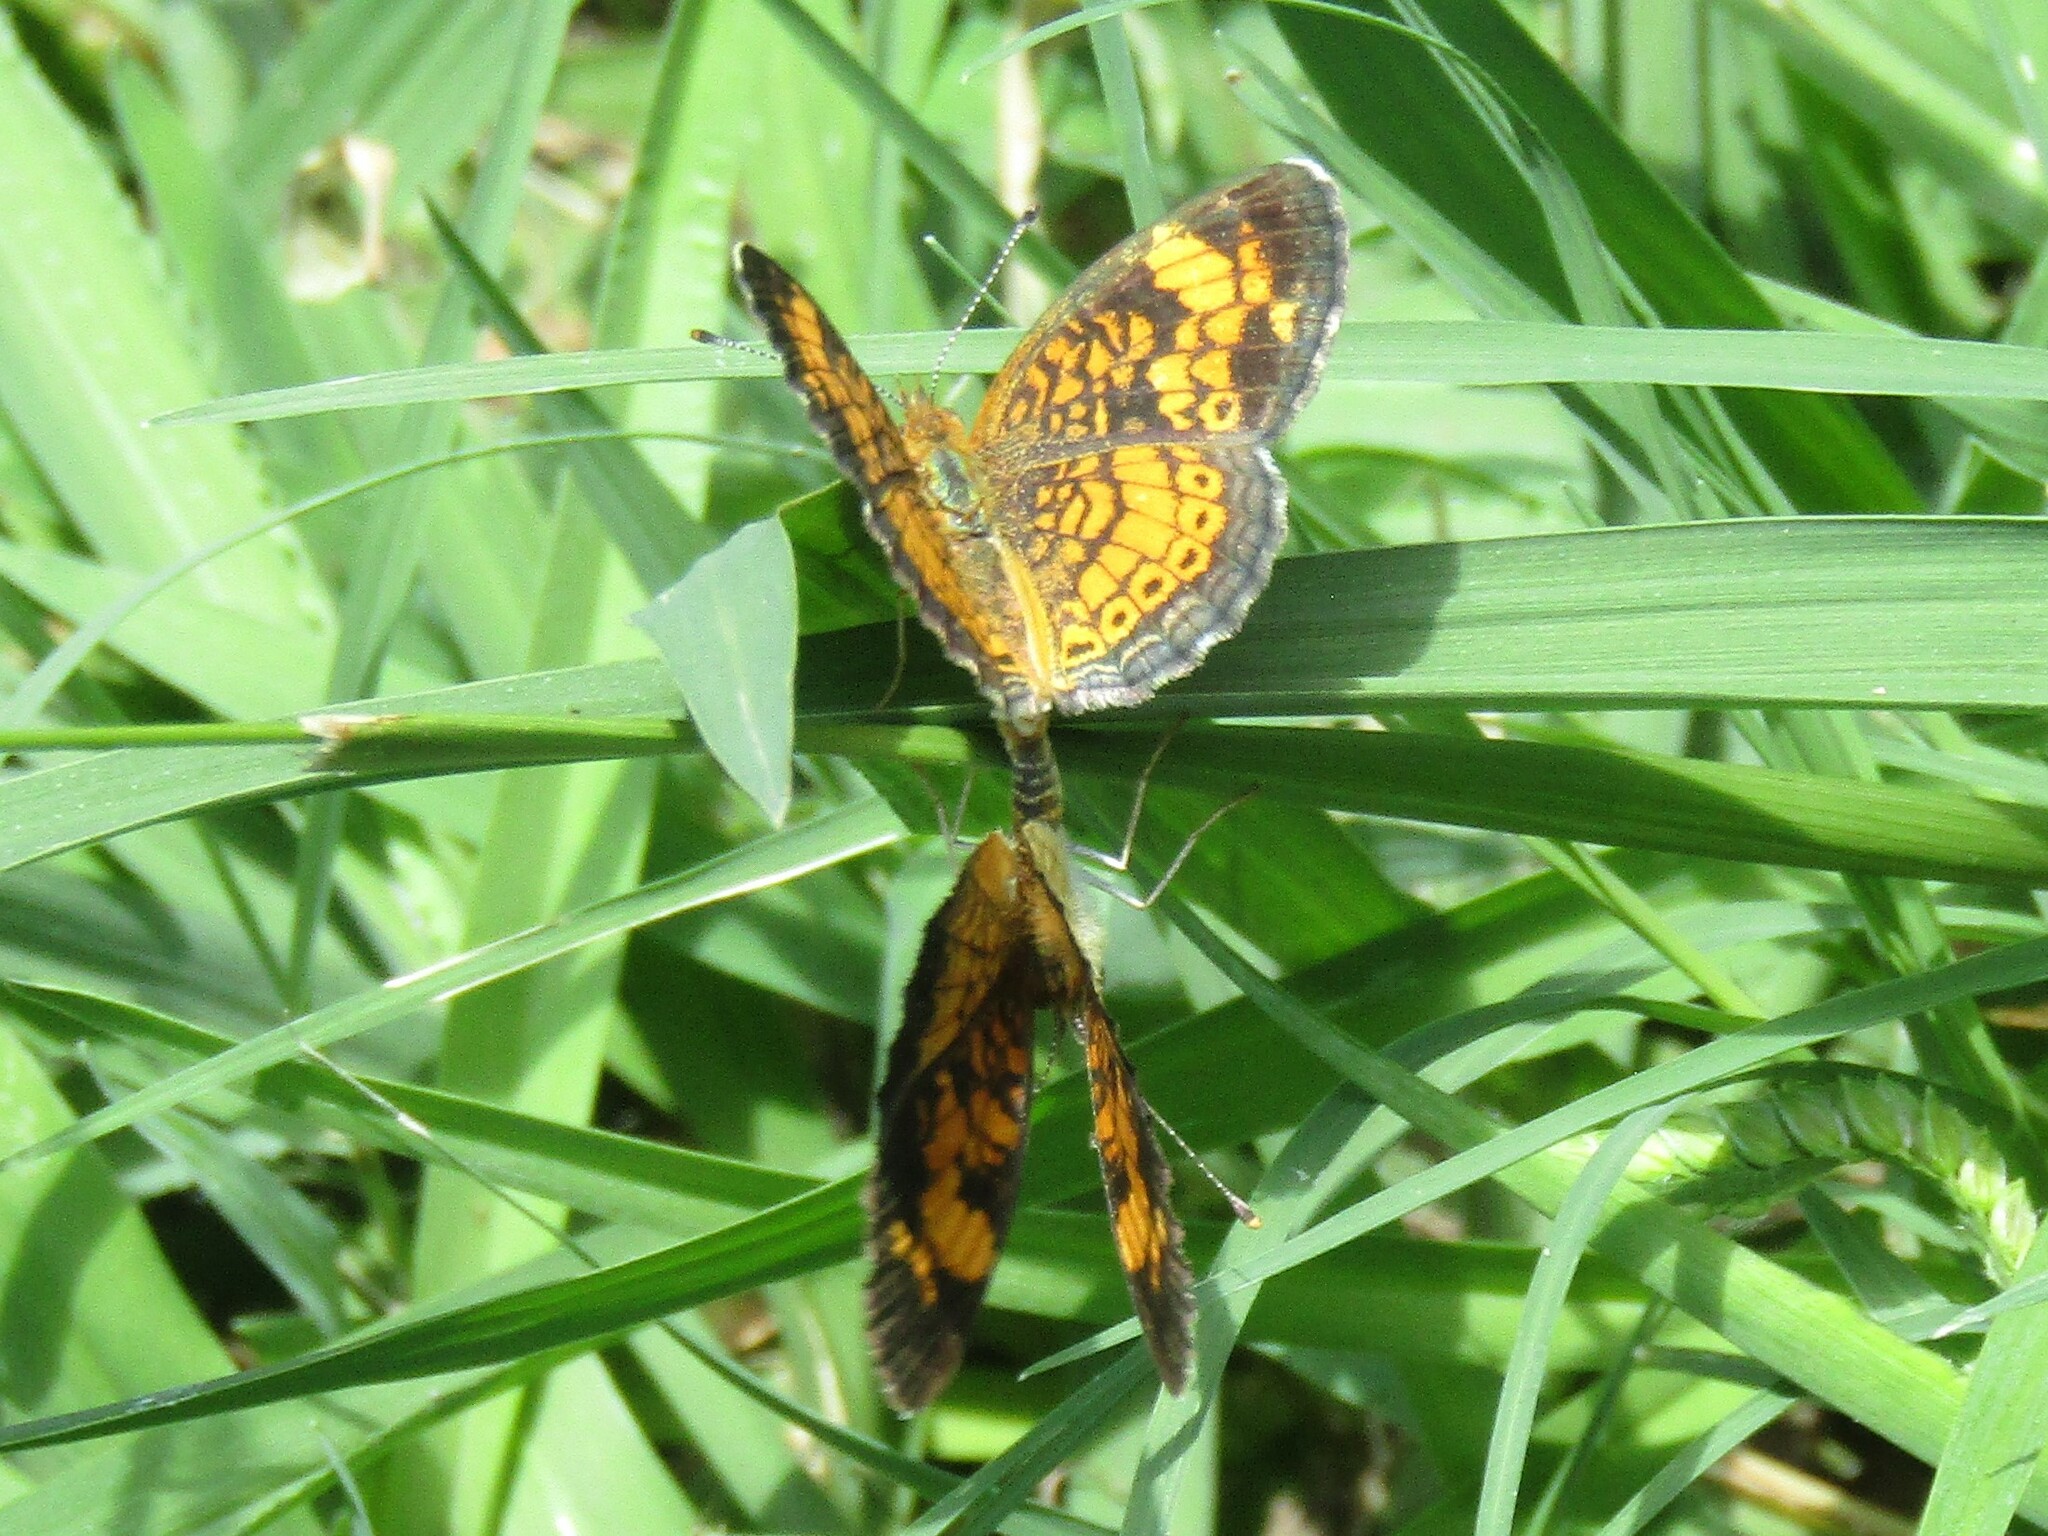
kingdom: Animalia
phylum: Arthropoda
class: Insecta
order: Lepidoptera
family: Nymphalidae
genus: Phyciodes
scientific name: Phyciodes tharos
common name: Pearl crescent
